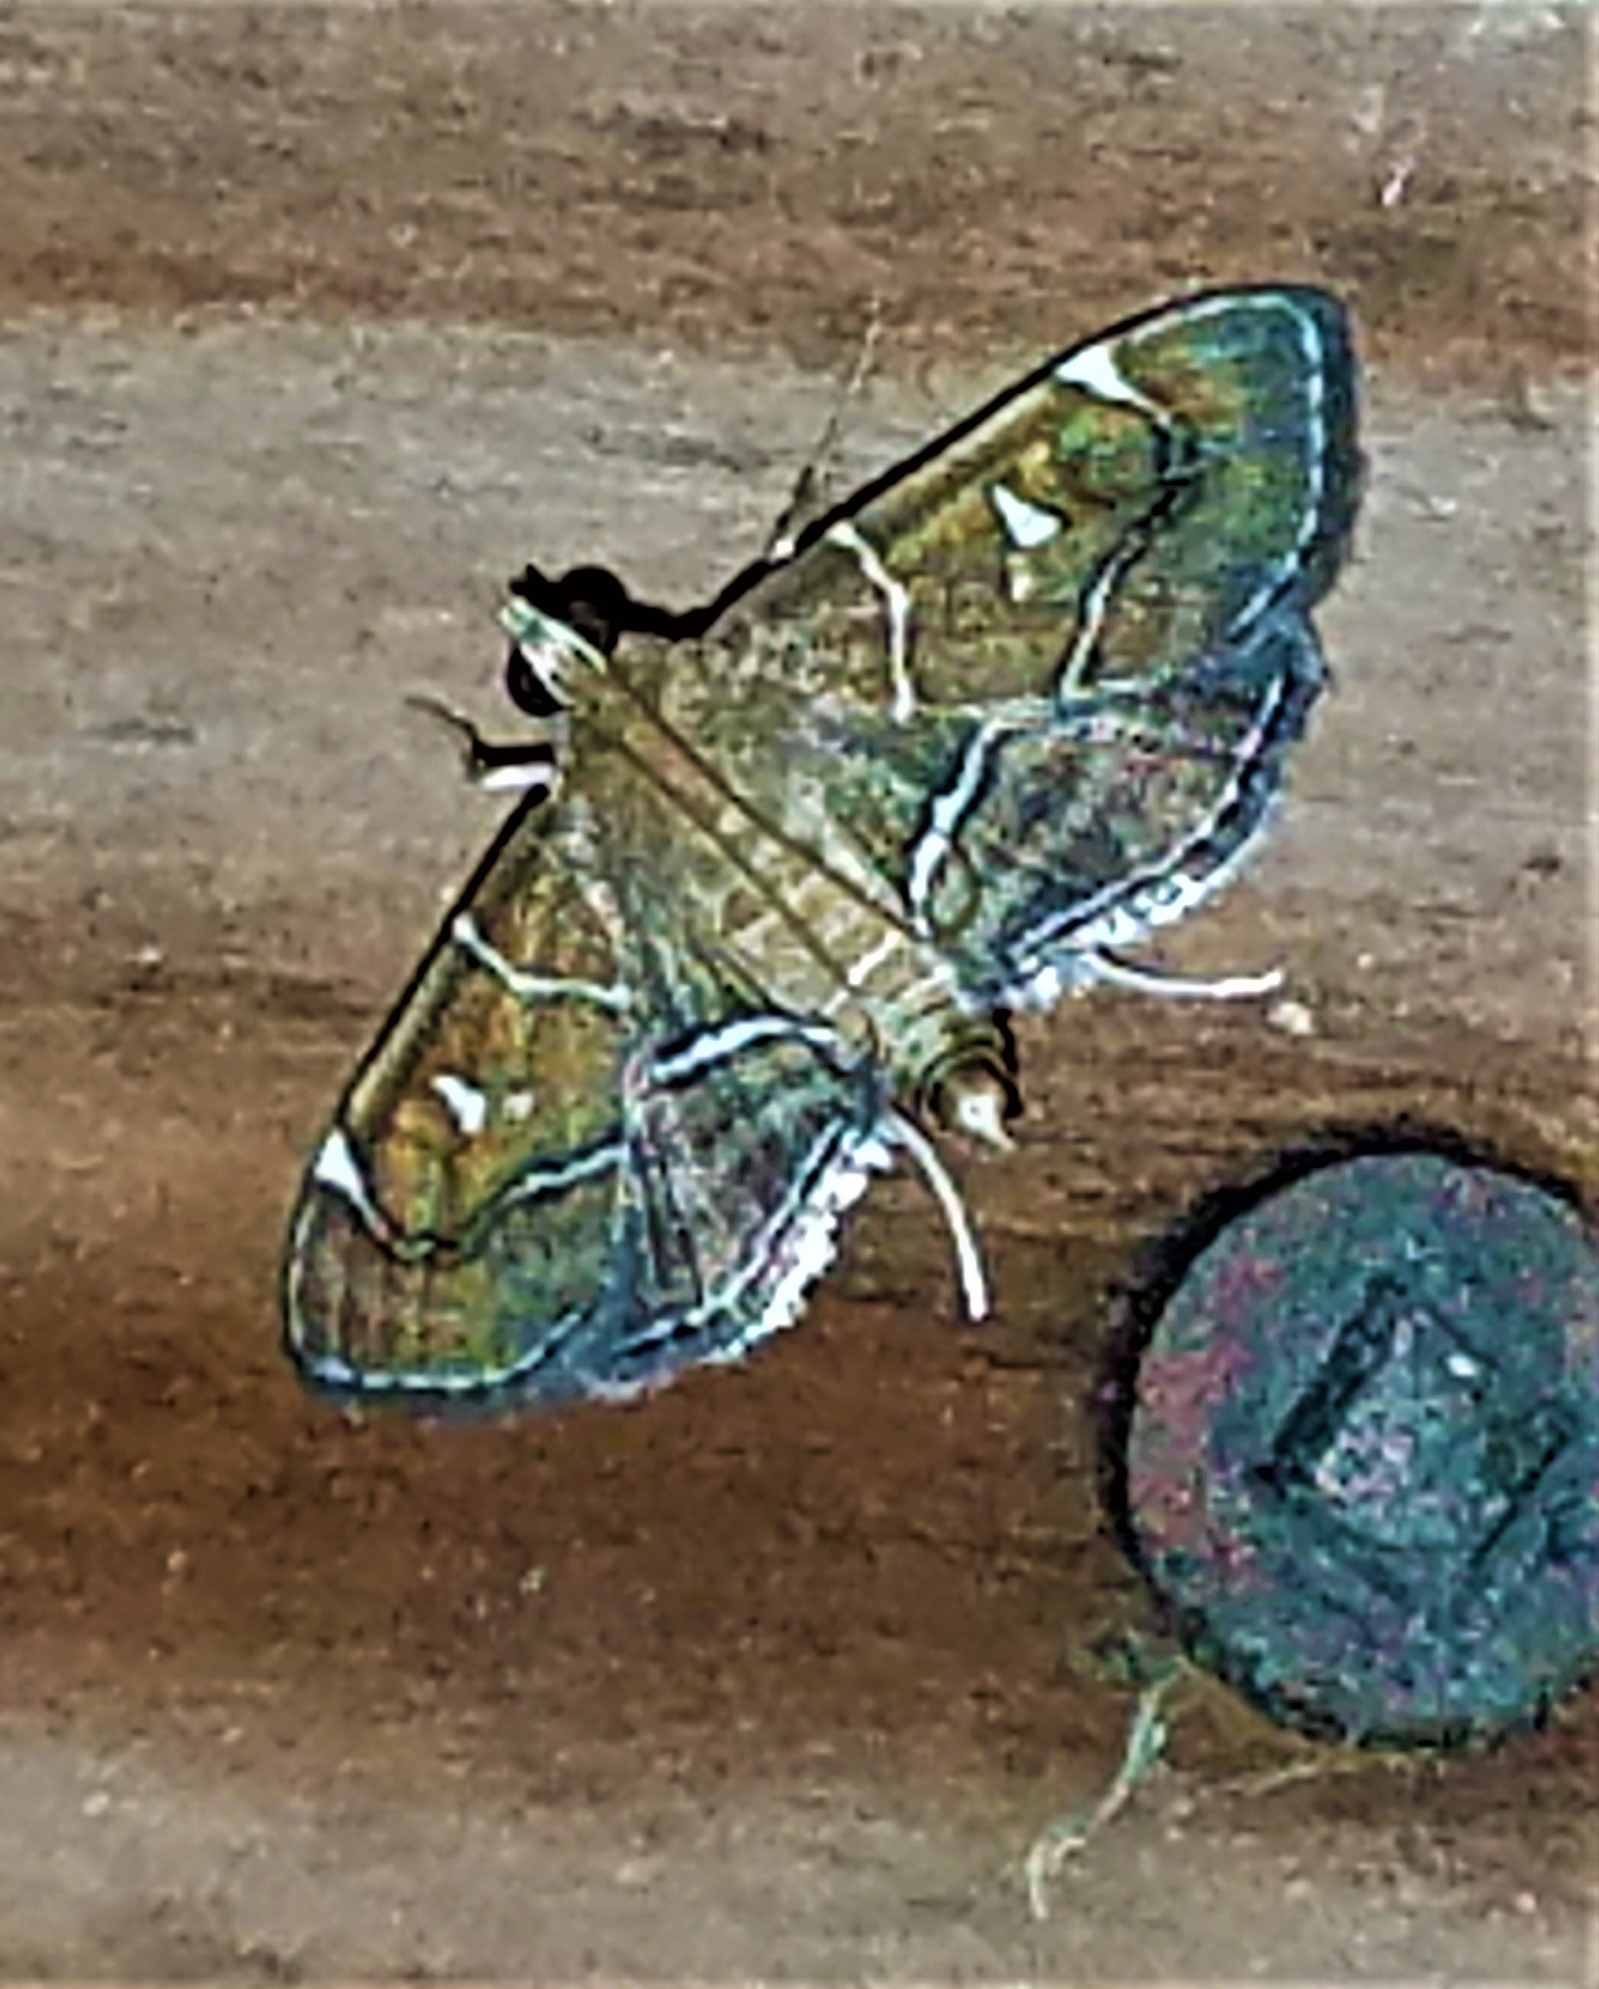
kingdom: Animalia
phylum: Arthropoda
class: Insecta
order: Lepidoptera
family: Crambidae
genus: Lamprosema
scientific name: Lamprosema victoriae
